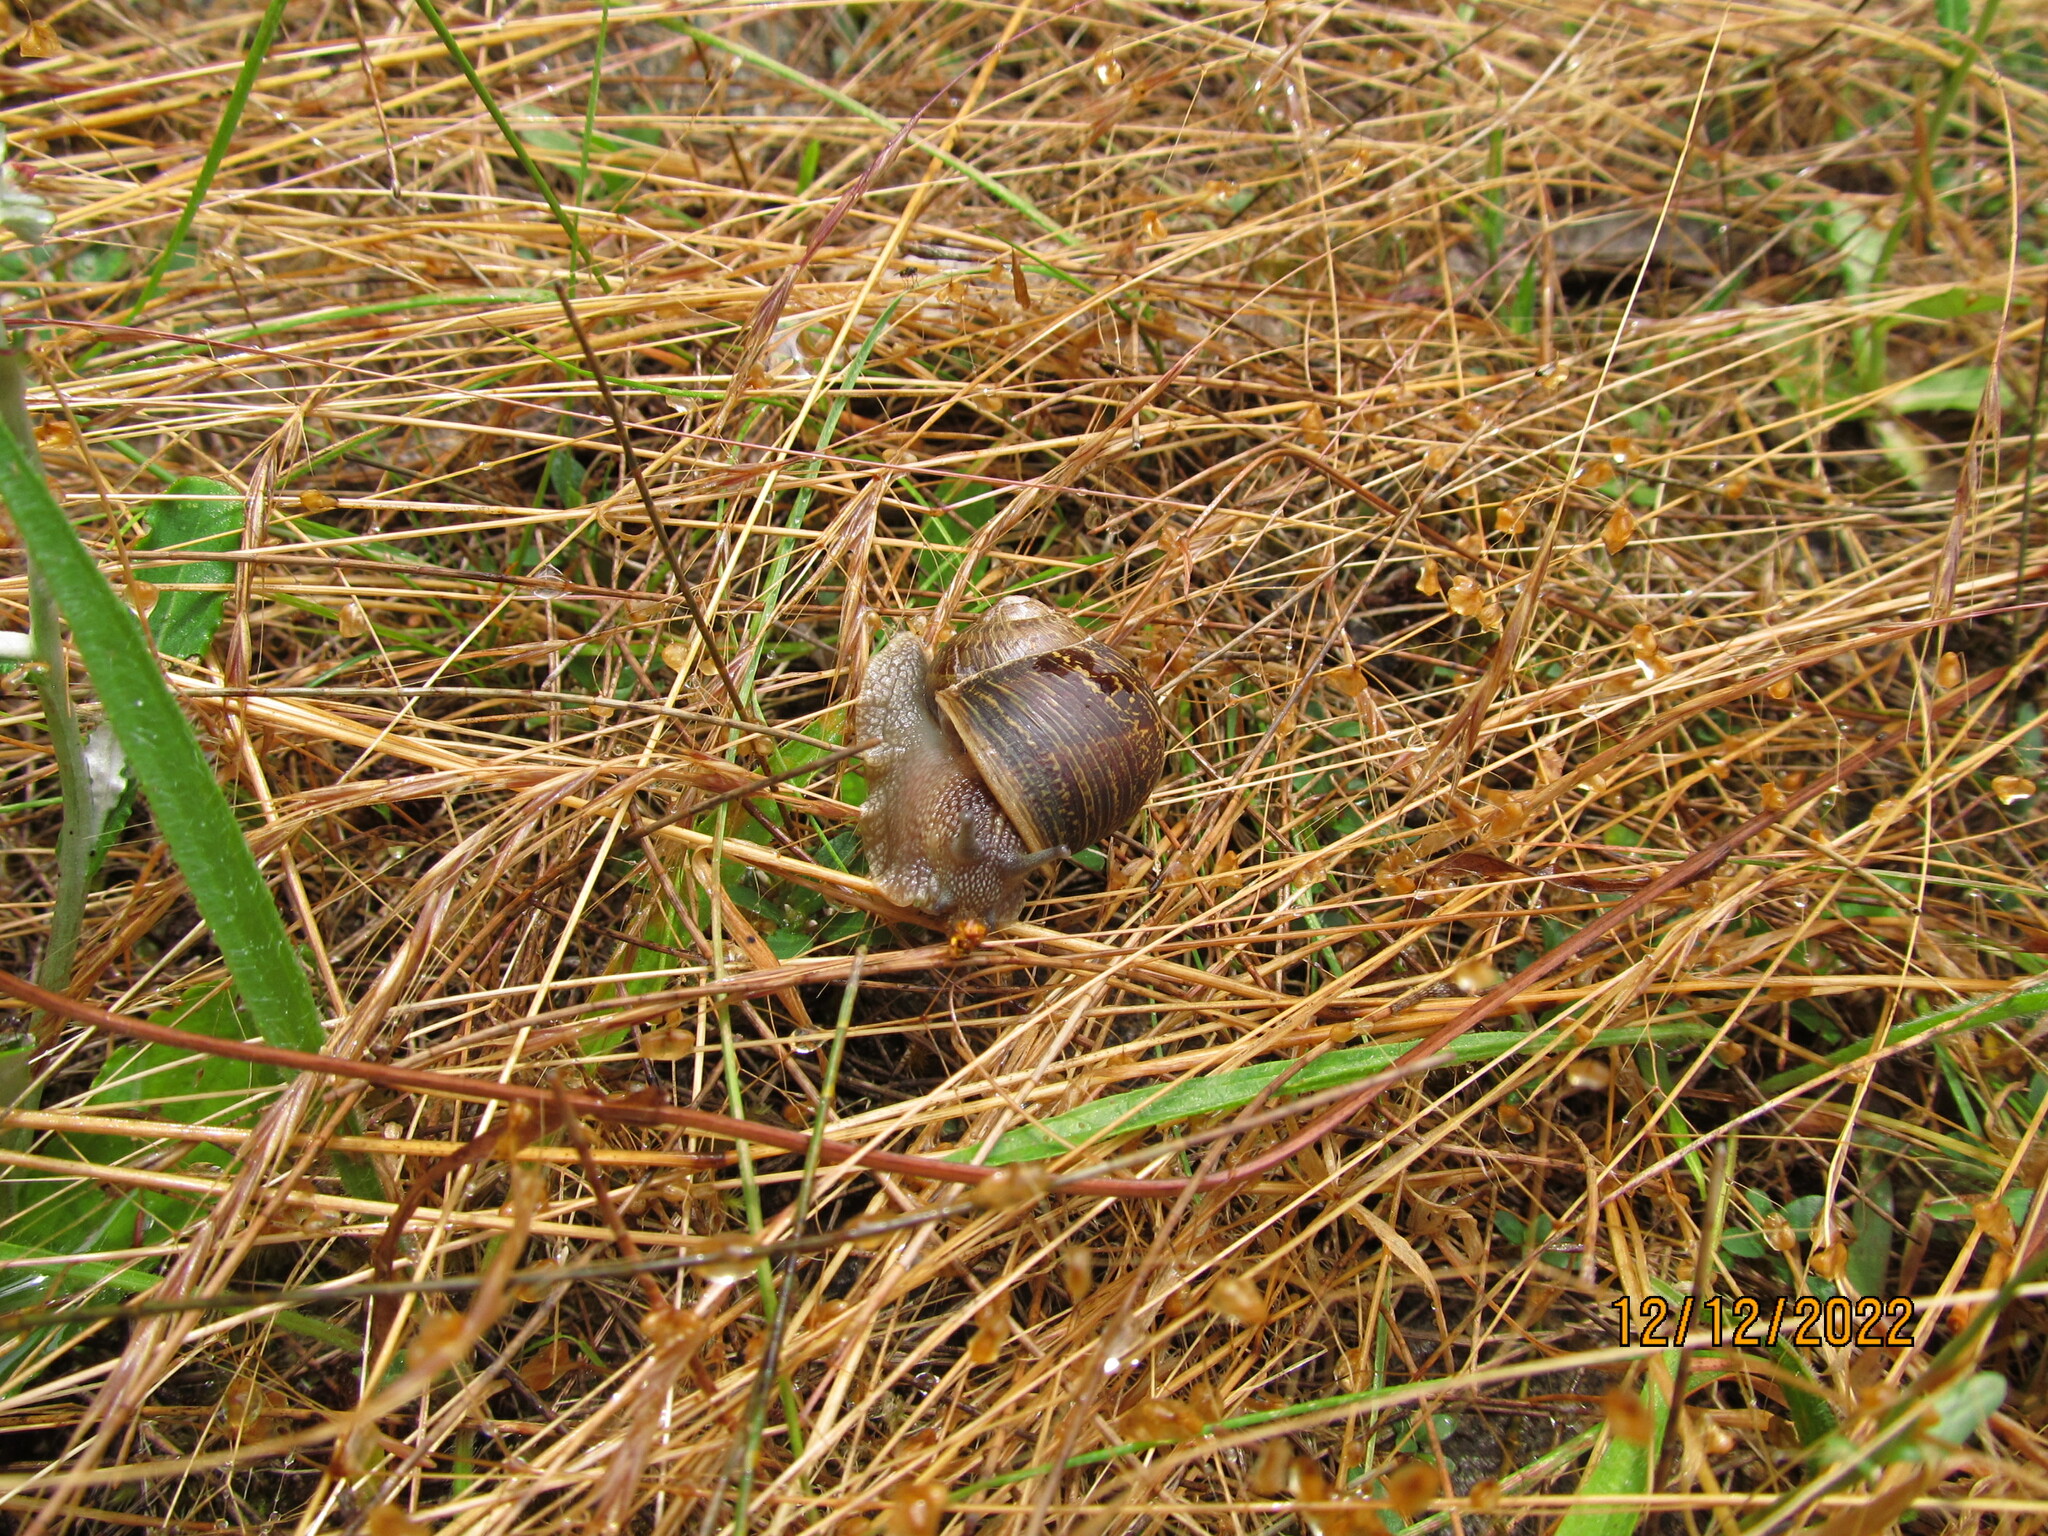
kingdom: Animalia
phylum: Mollusca
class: Gastropoda
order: Stylommatophora
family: Helicidae
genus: Cornu
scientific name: Cornu aspersum
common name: Brown garden snail
